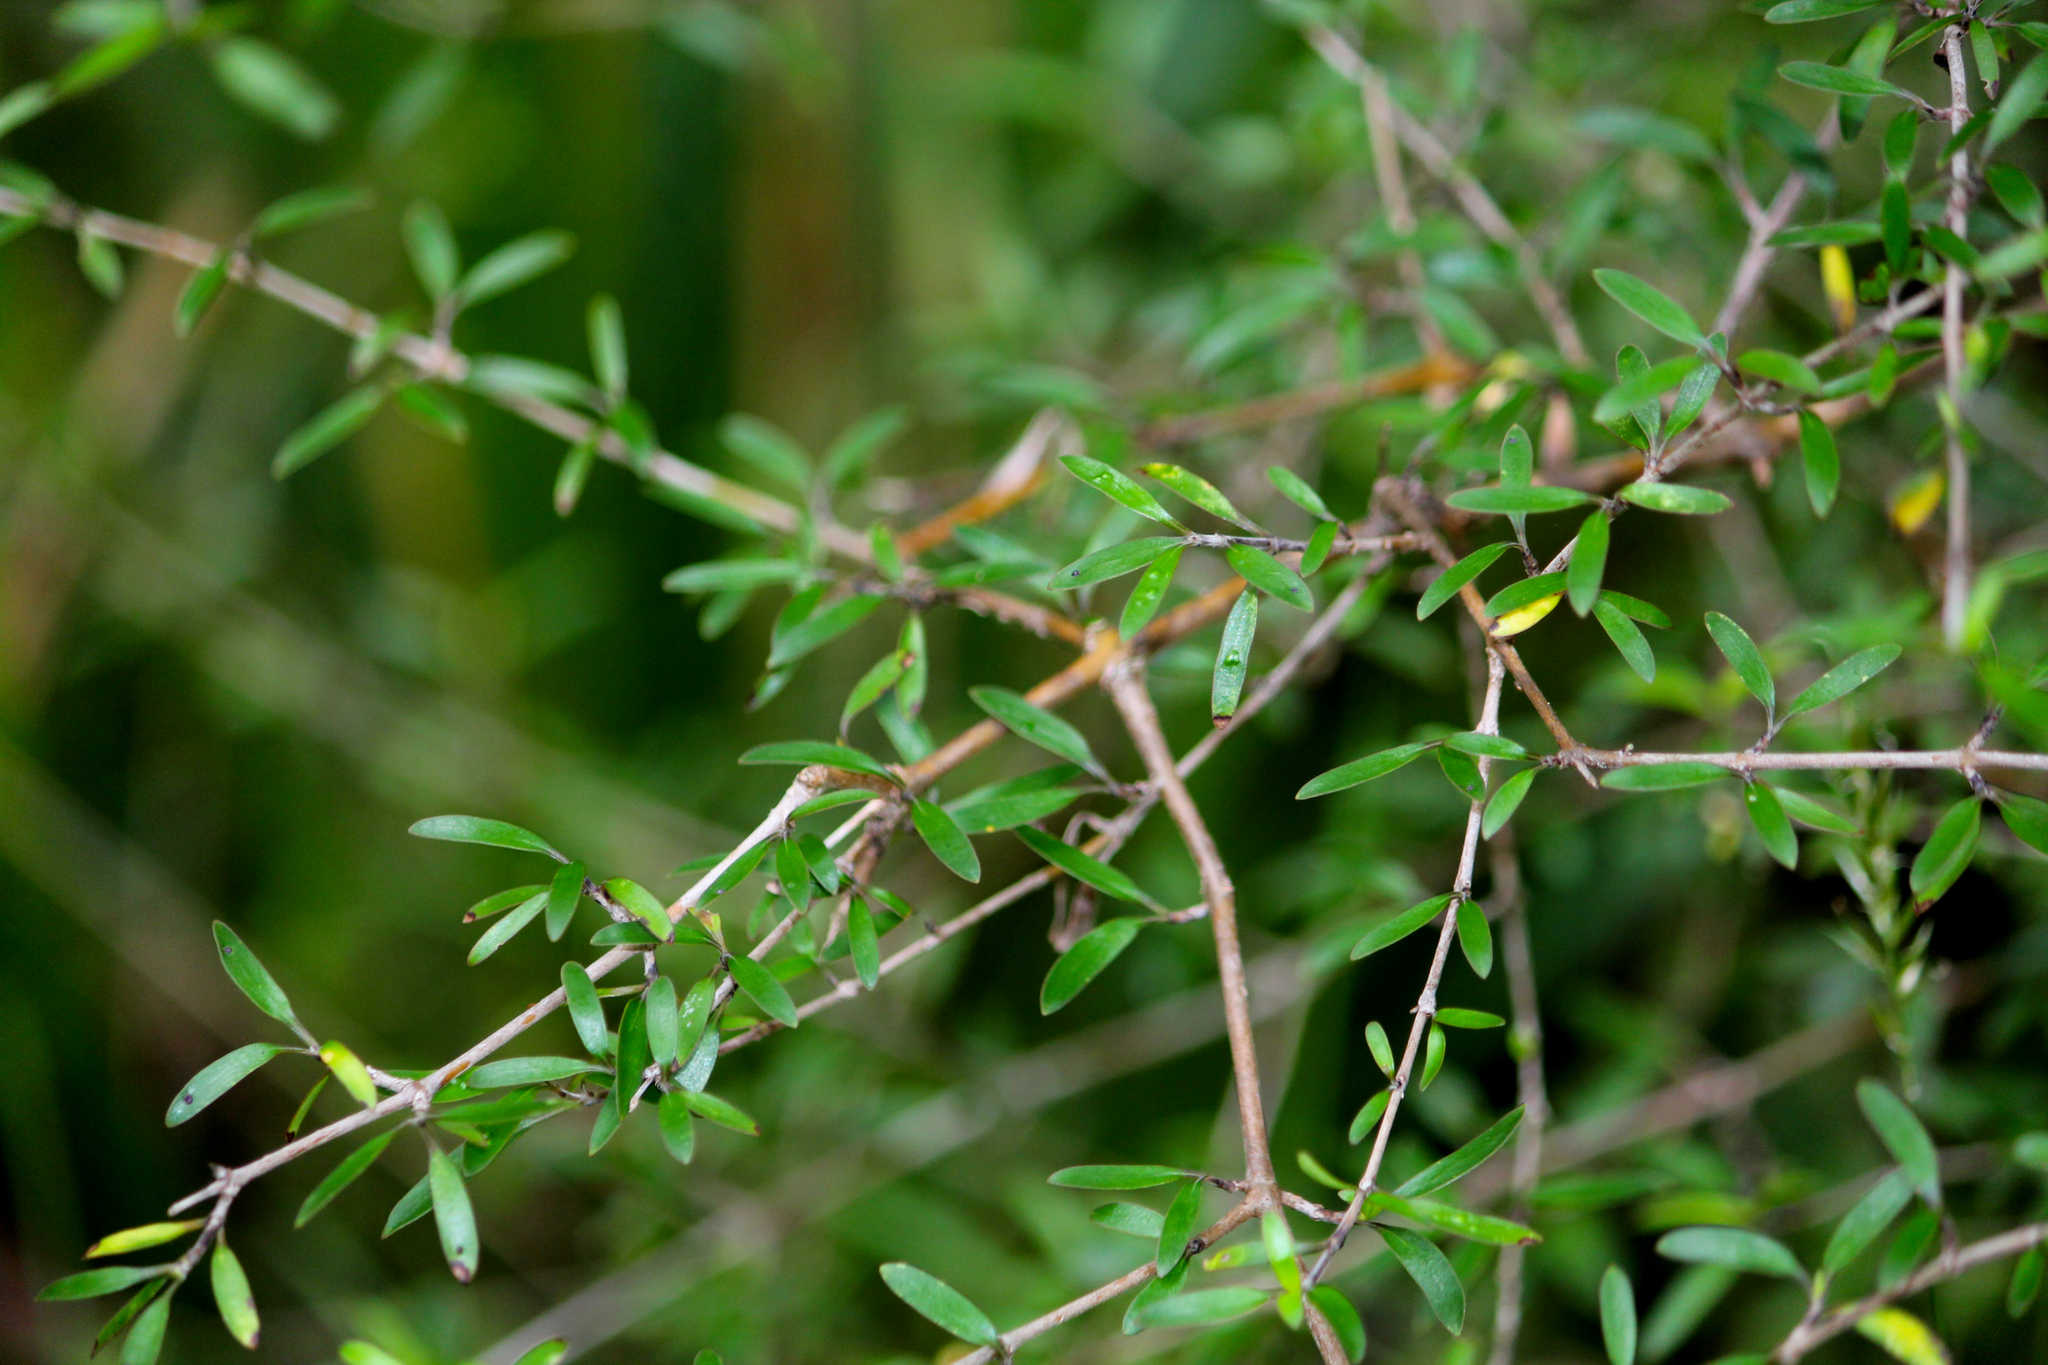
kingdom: Plantae
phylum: Tracheophyta
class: Magnoliopsida
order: Gentianales
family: Rubiaceae
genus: Coprosma
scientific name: Coprosma linariifolia
